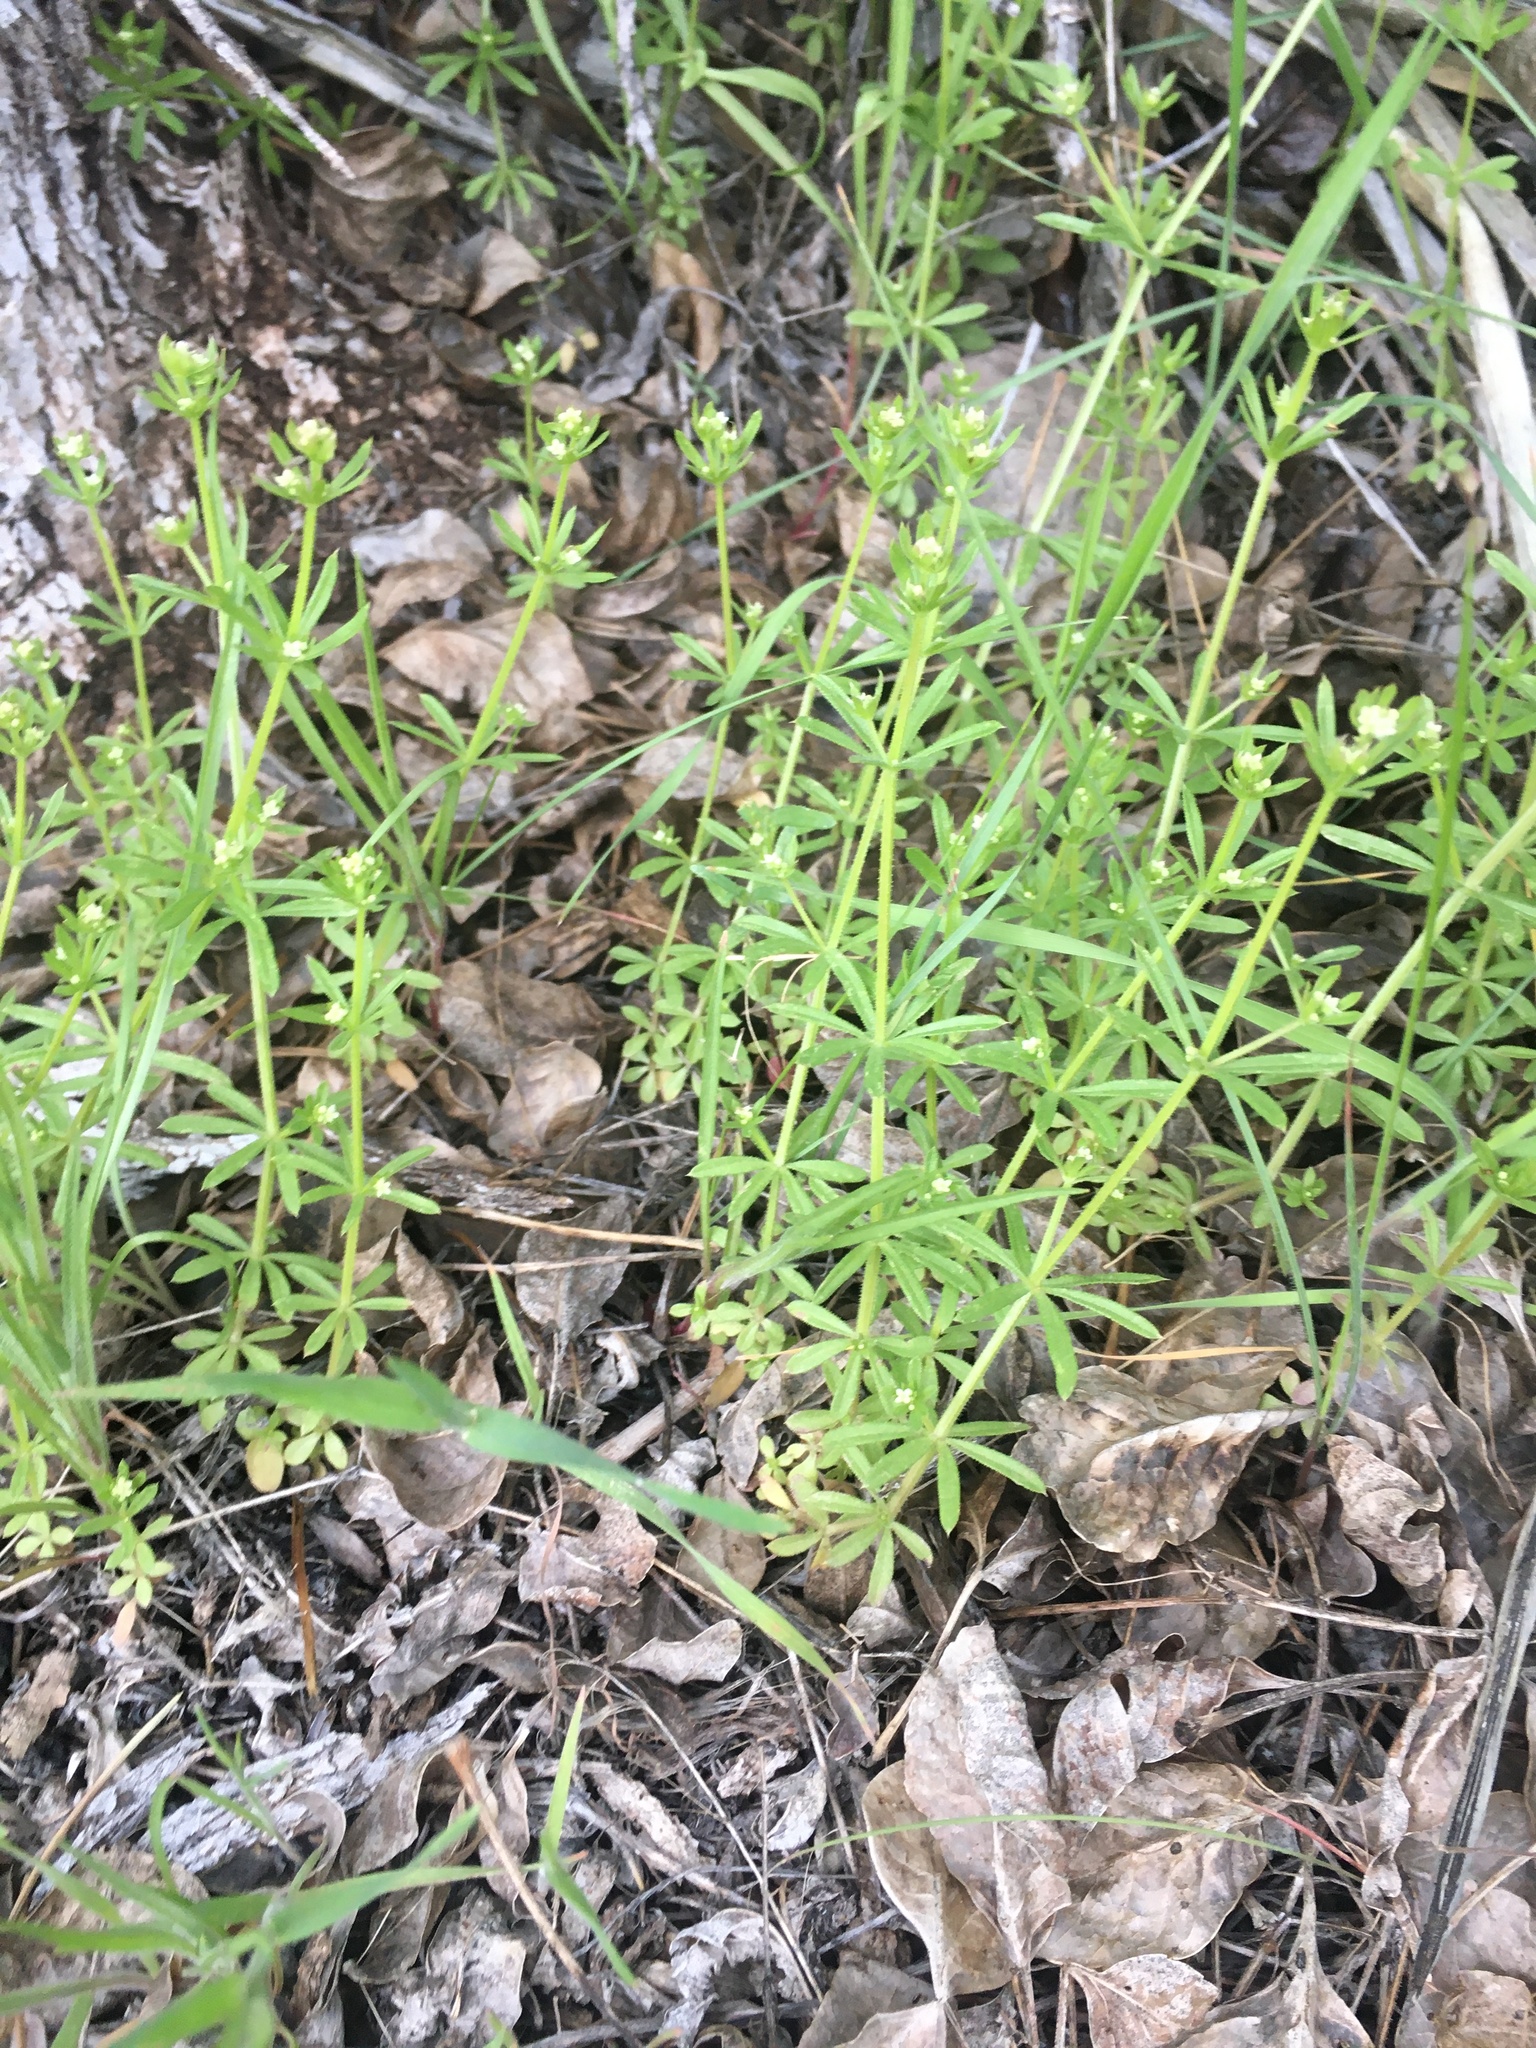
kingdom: Plantae
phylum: Tracheophyta
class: Magnoliopsida
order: Gentianales
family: Rubiaceae
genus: Galium
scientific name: Galium aparine
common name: Cleavers
